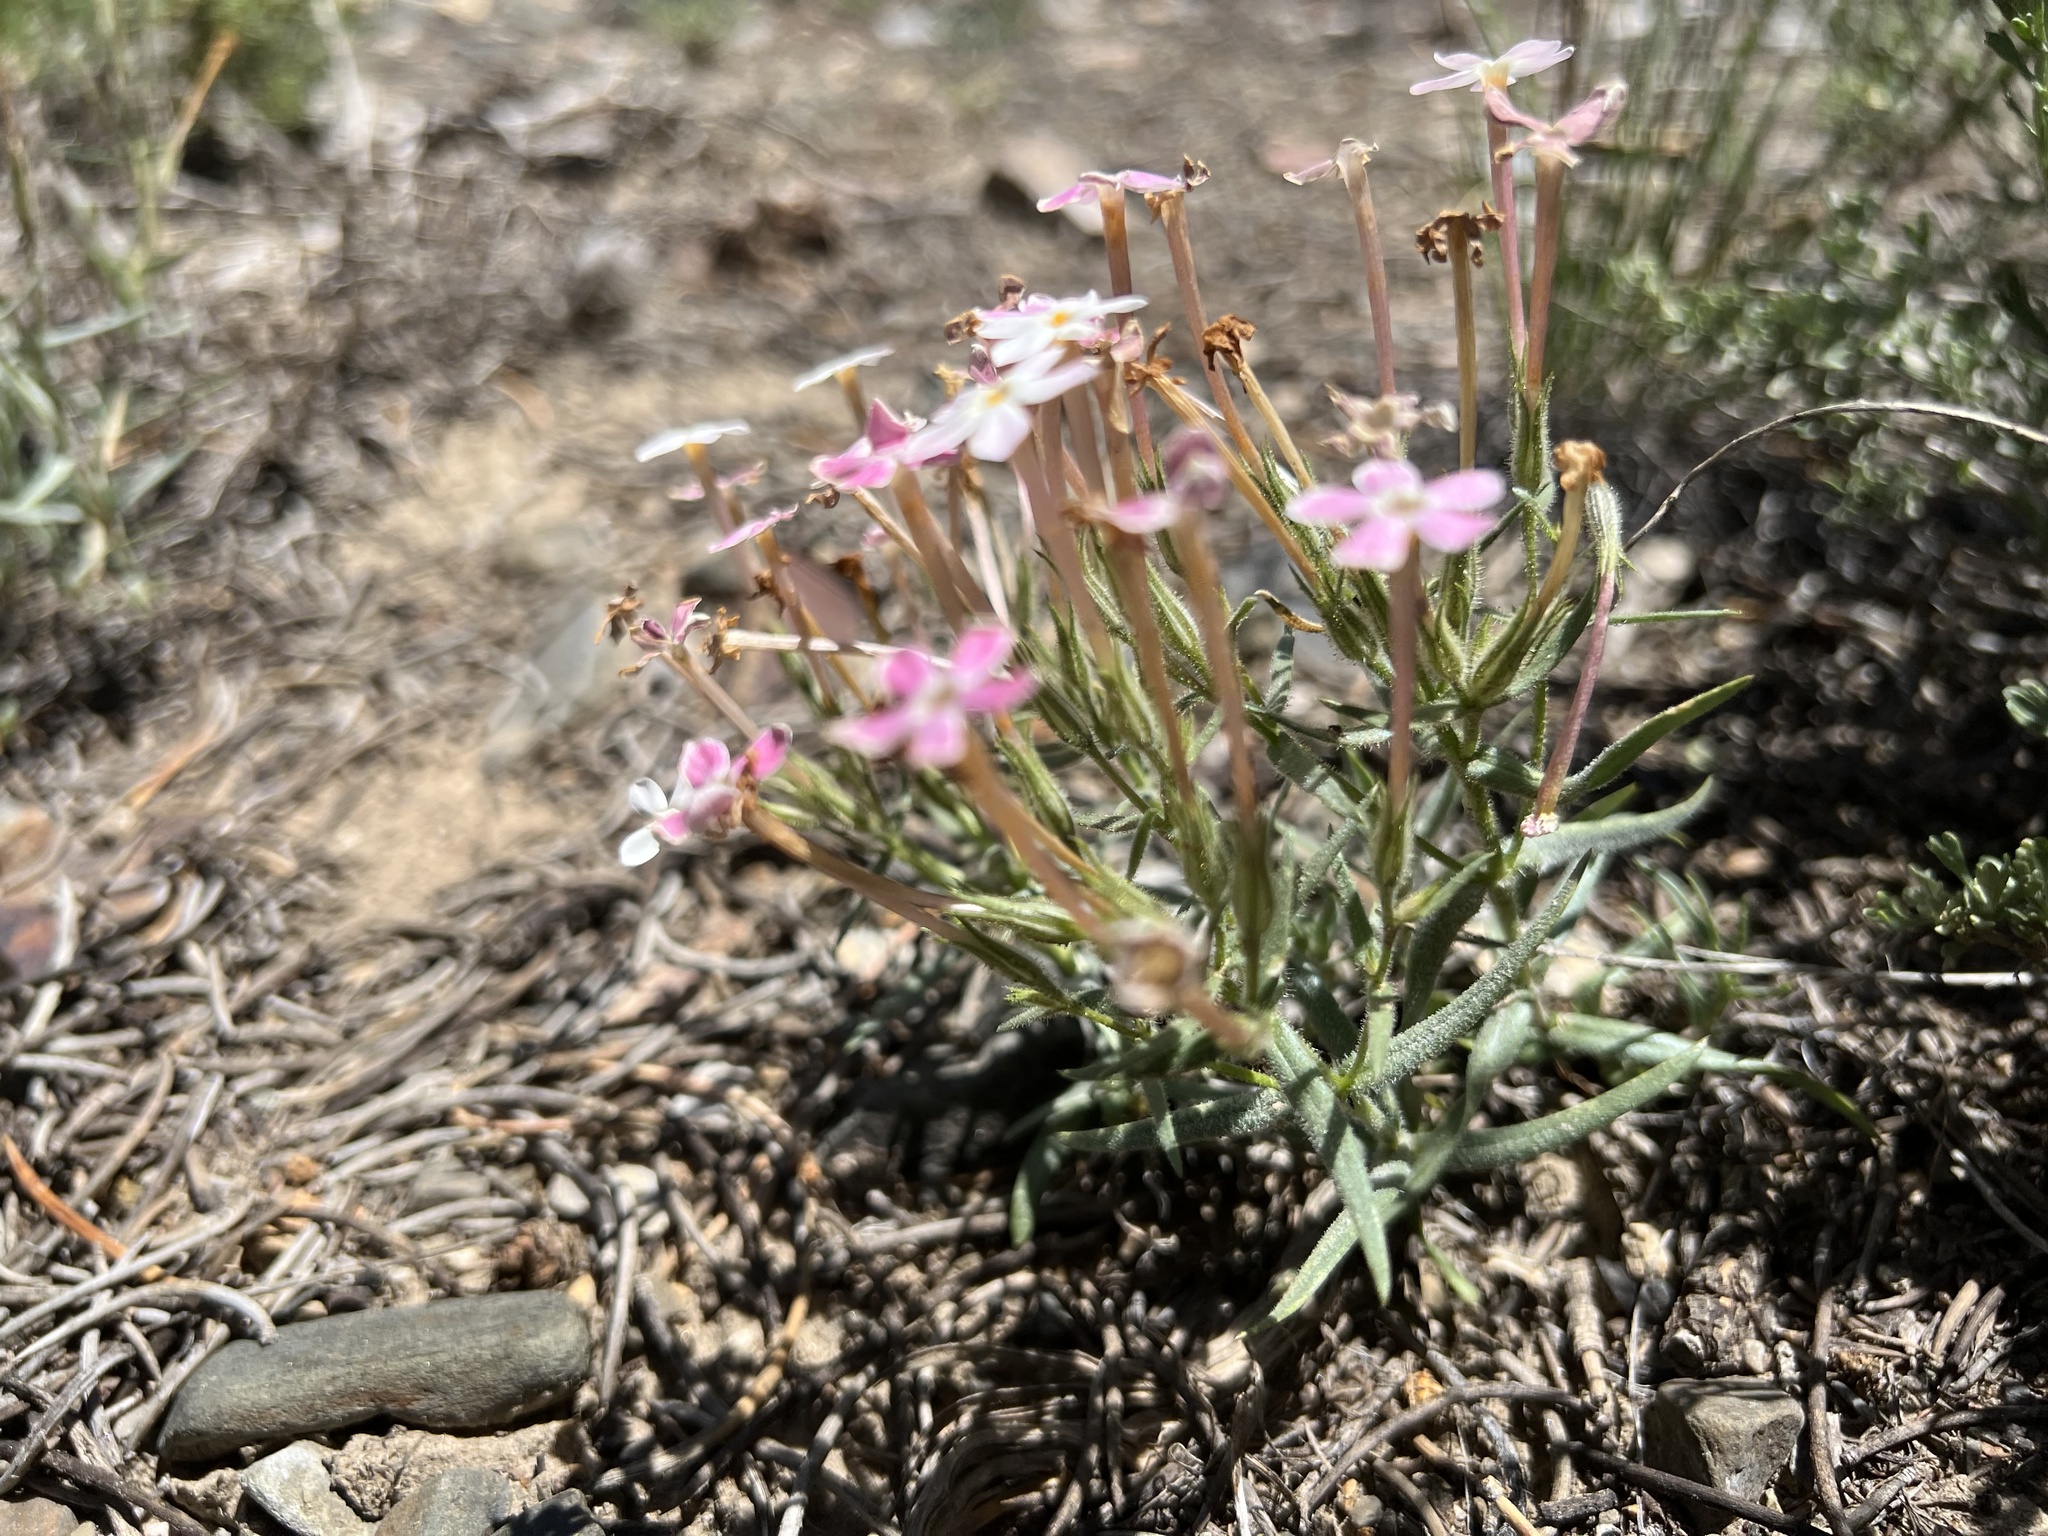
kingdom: Plantae
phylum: Tracheophyta
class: Magnoliopsida
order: Ericales
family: Polemoniaceae
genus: Phlox
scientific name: Phlox longifolia
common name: Longleaf phlox
